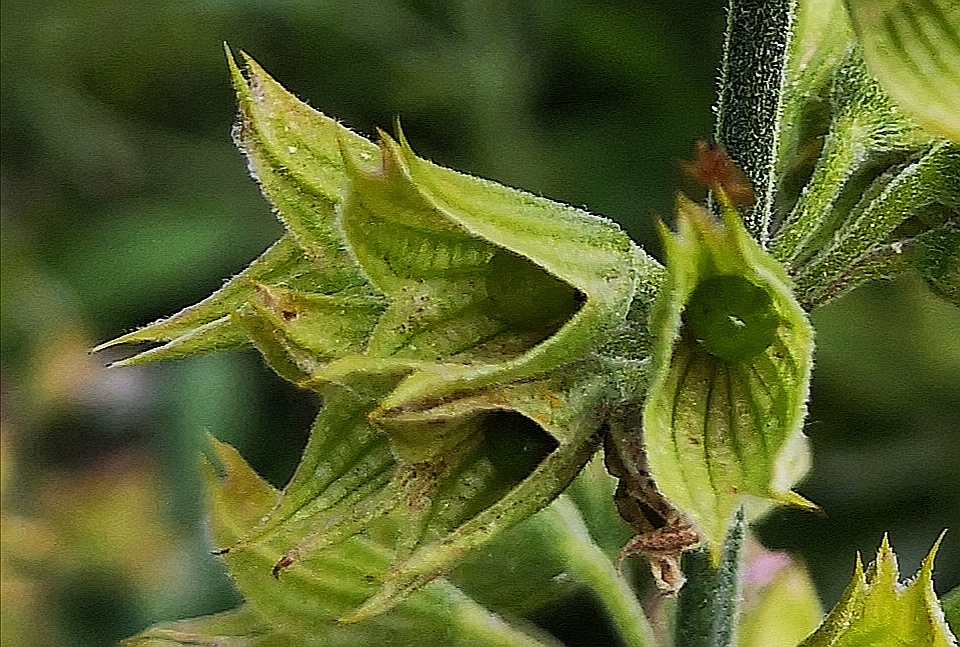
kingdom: Plantae
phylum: Tracheophyta
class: Magnoliopsida
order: Lamiales
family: Lamiaceae
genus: Salvia
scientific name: Salvia officinalis
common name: Sage
